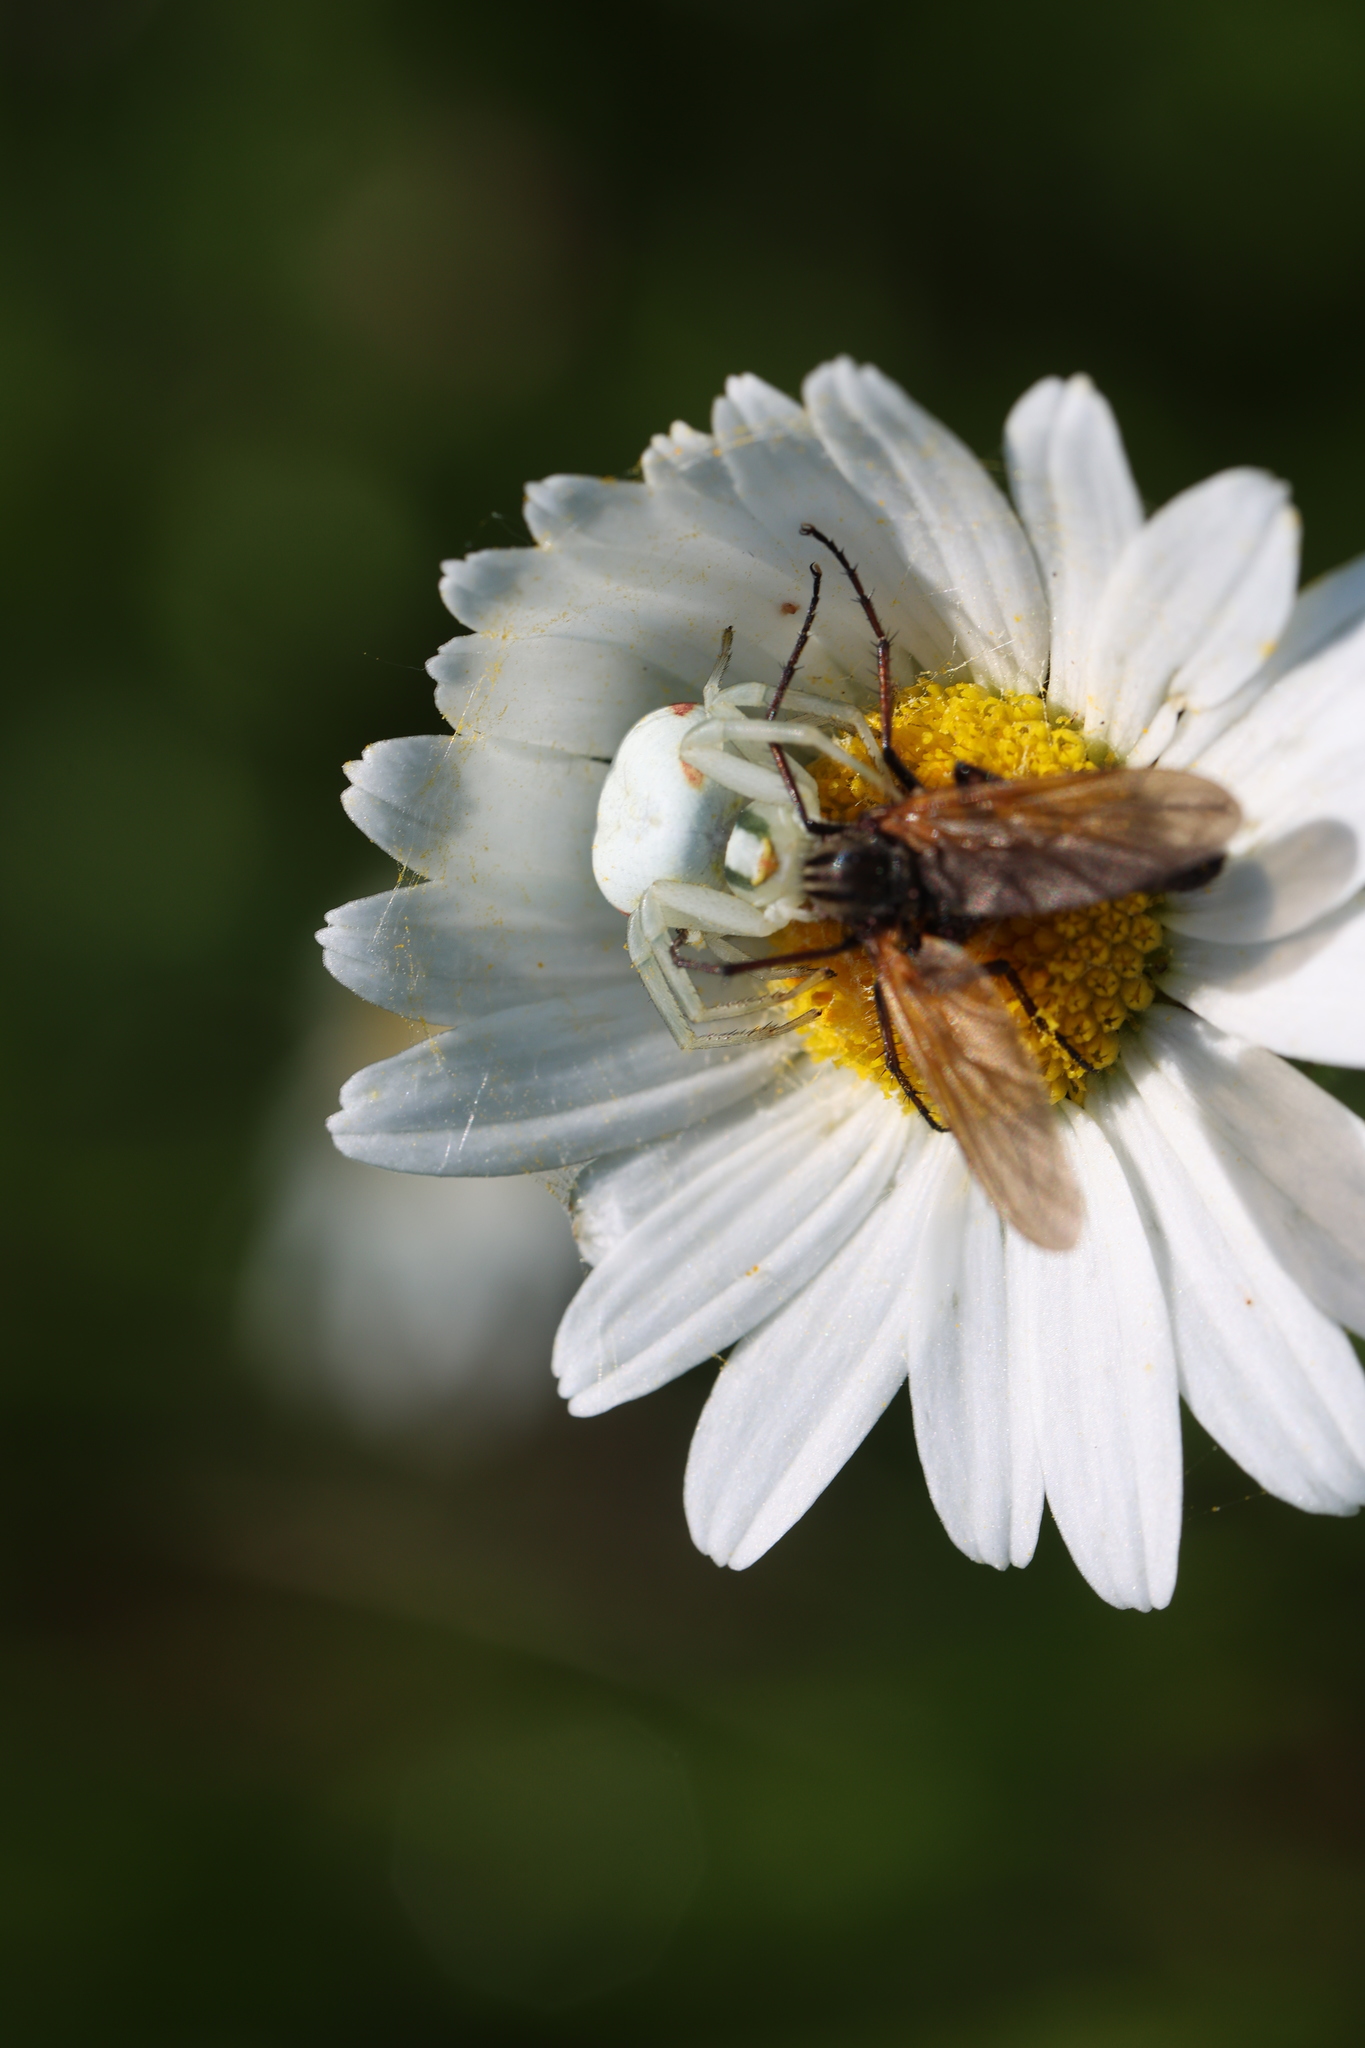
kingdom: Animalia
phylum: Arthropoda
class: Arachnida
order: Araneae
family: Thomisidae
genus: Misumena
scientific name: Misumena vatia
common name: Goldenrod crab spider
